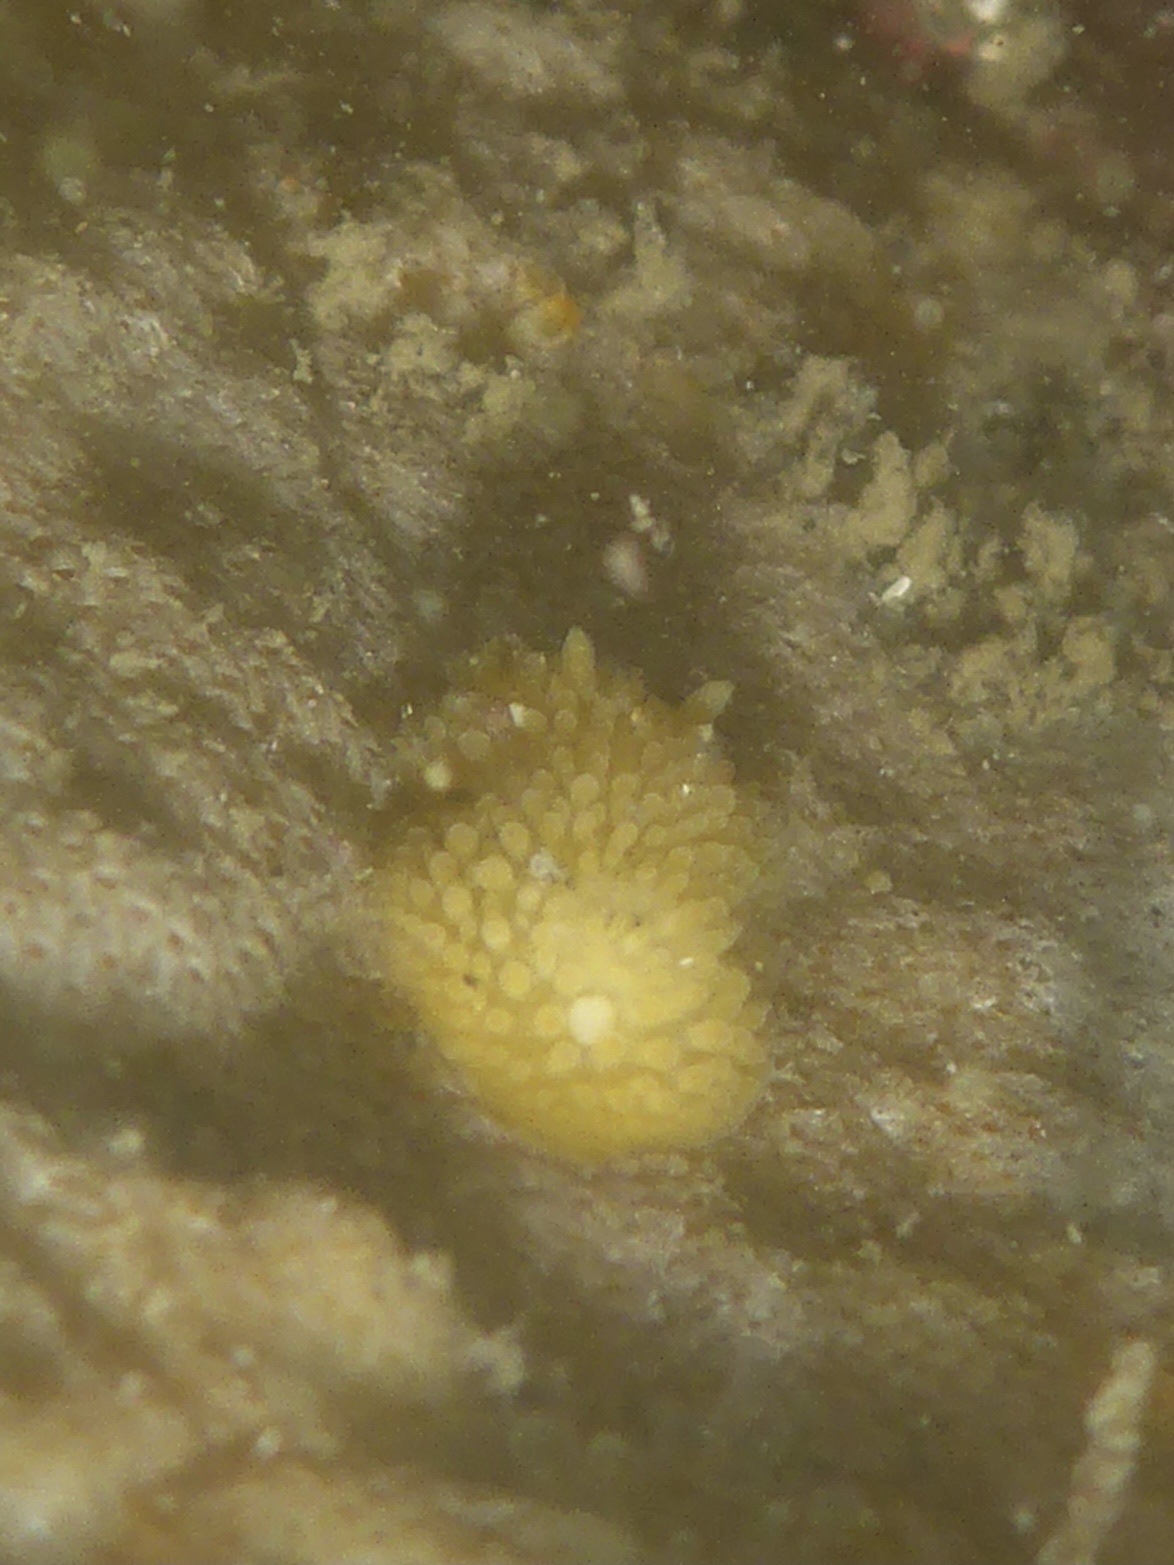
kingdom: Animalia
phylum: Mollusca
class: Gastropoda
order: Nudibranchia
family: Onchidorididae
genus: Atalodoris
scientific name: Atalodoris jannae
